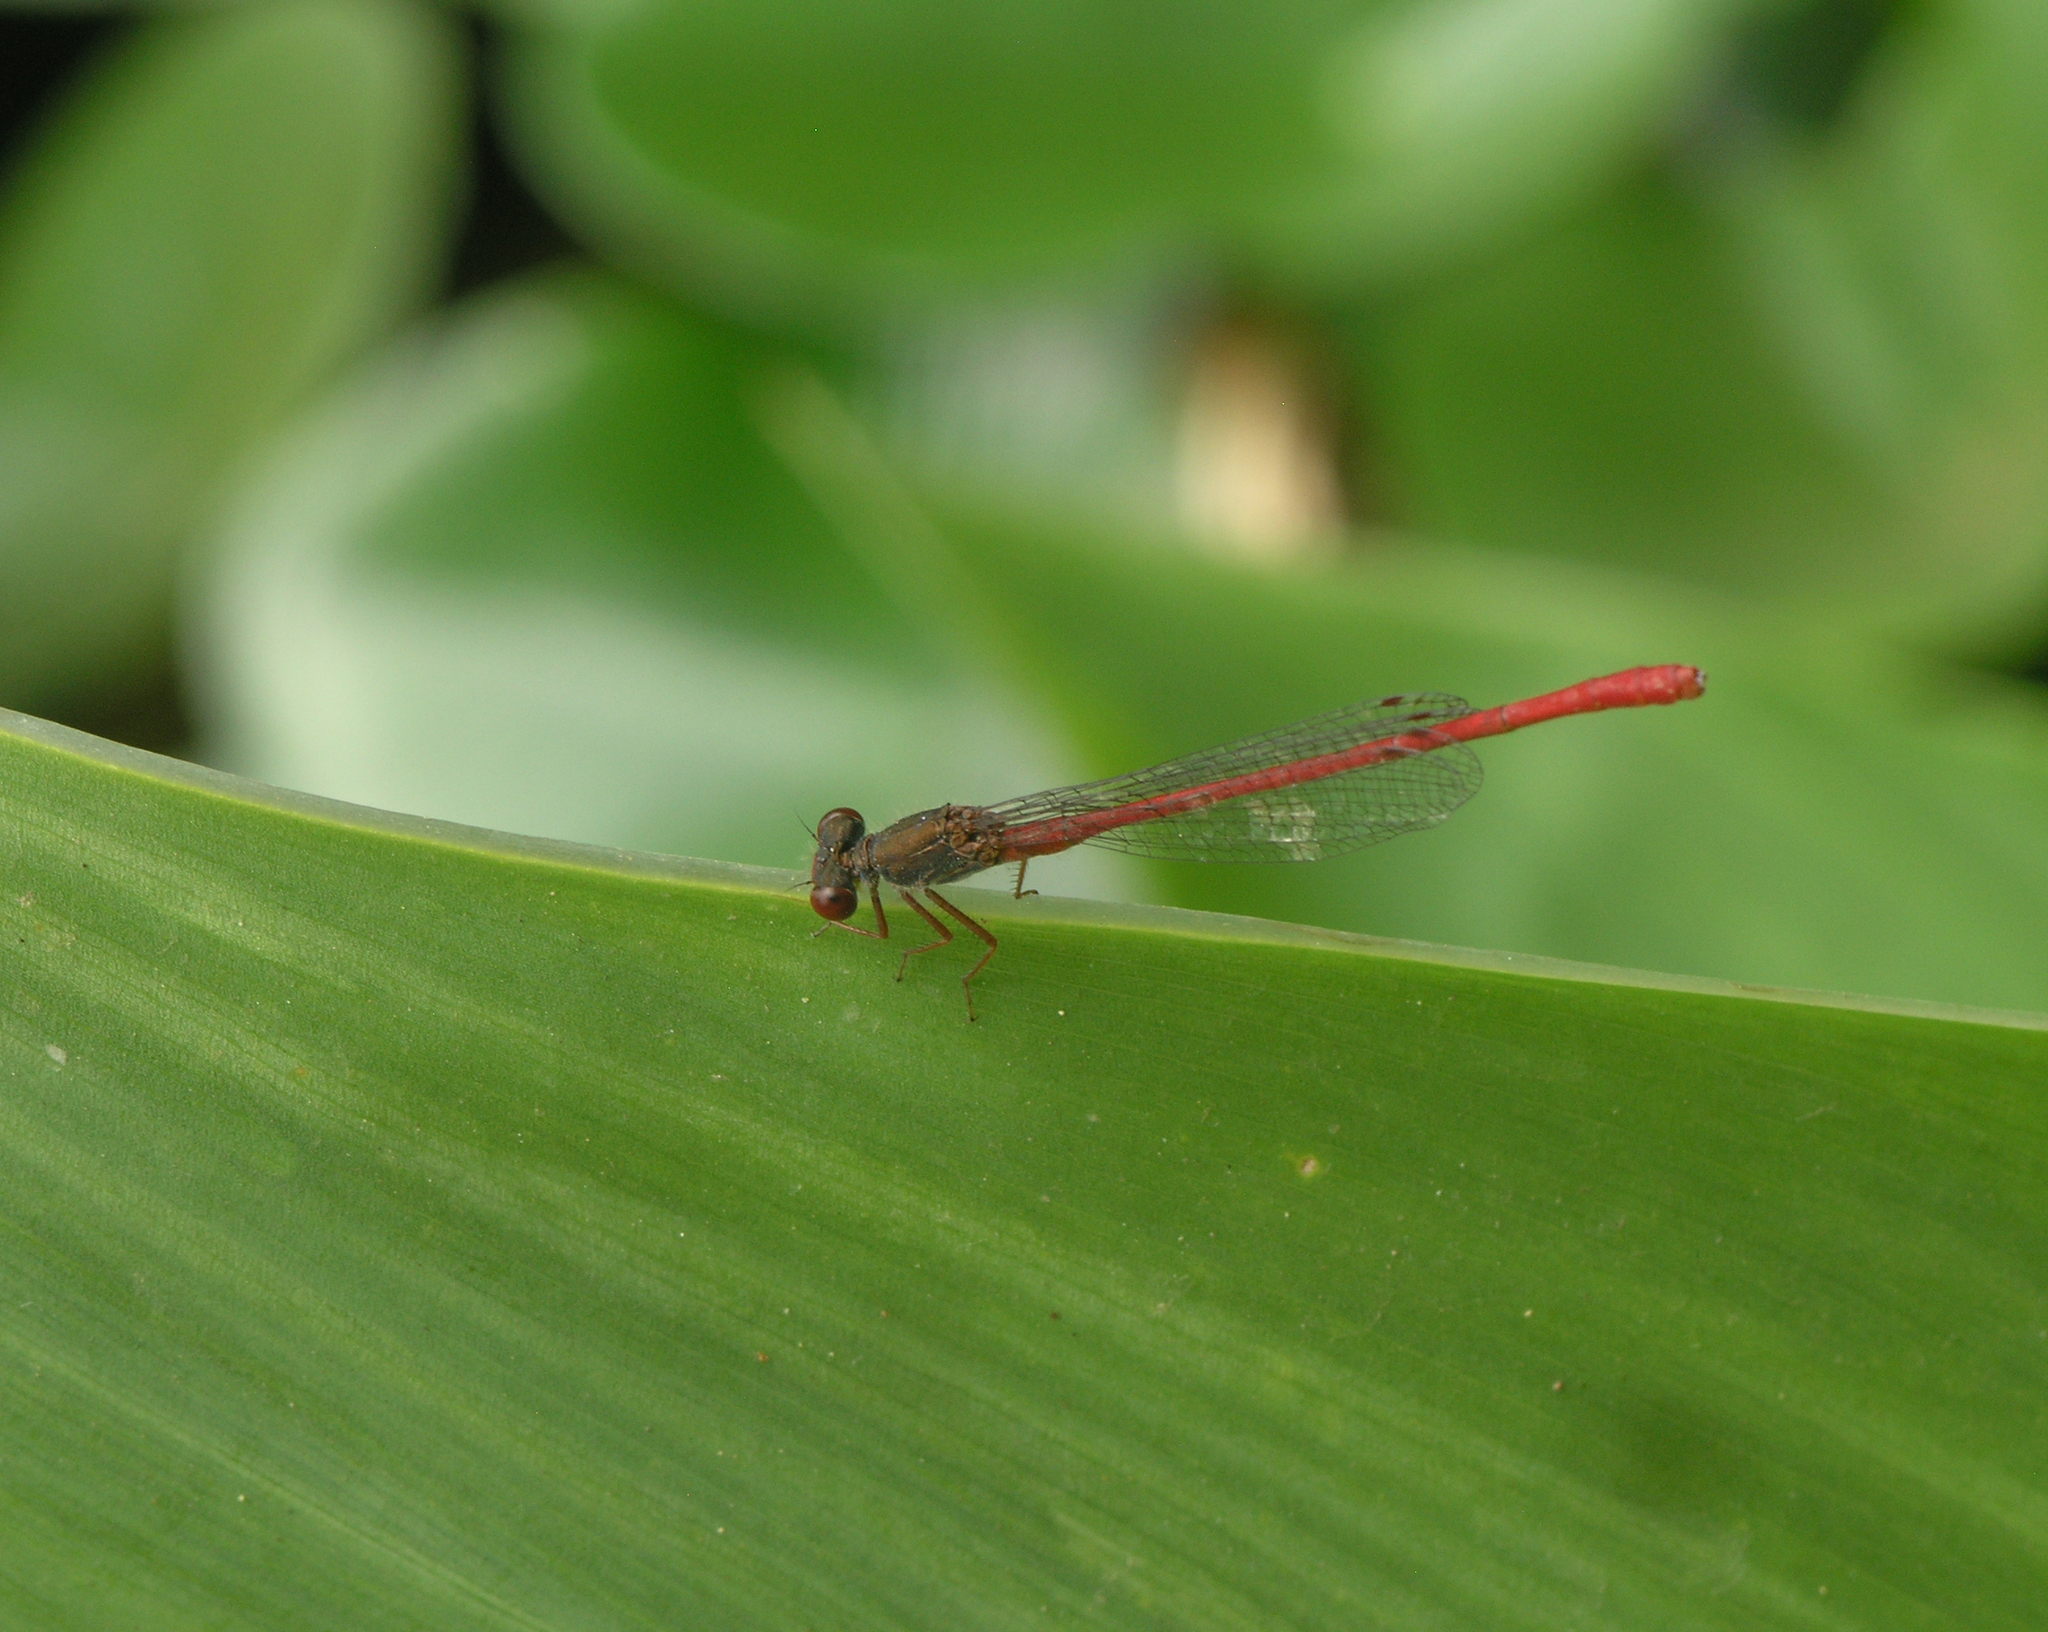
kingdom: Animalia
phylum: Arthropoda
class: Insecta
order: Odonata
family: Coenagrionidae
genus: Ceriagrion
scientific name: Ceriagrion tenellum
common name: Small red damselfly
